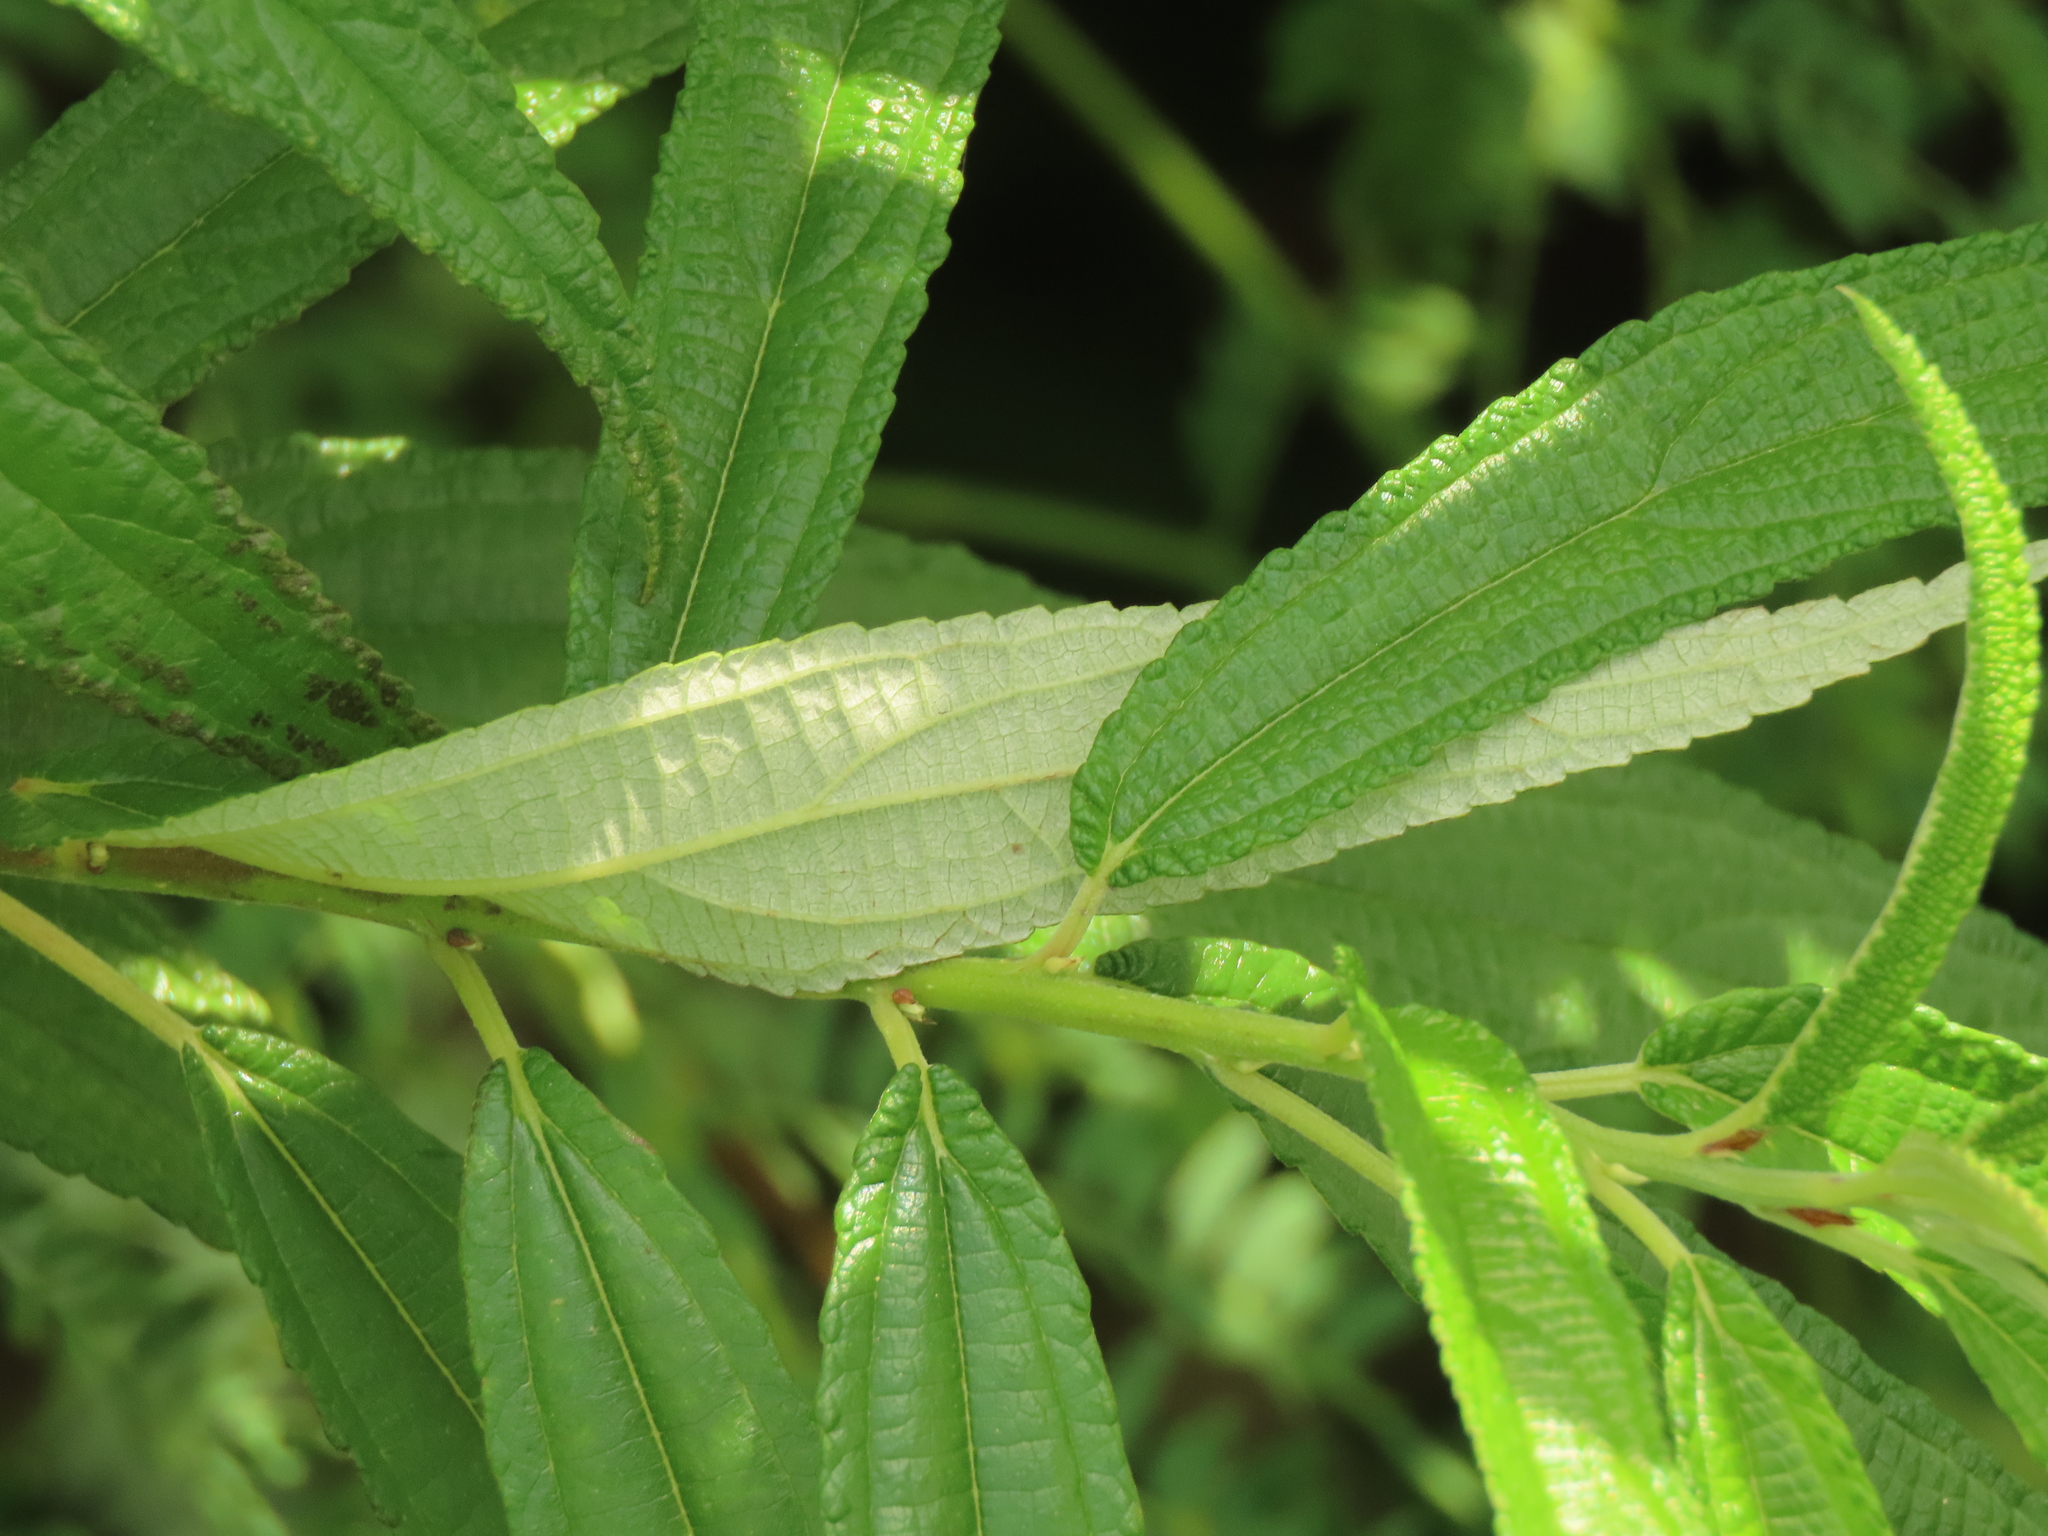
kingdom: Plantae
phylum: Tracheophyta
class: Magnoliopsida
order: Rosales
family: Urticaceae
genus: Debregeasia
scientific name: Debregeasia orientalis
